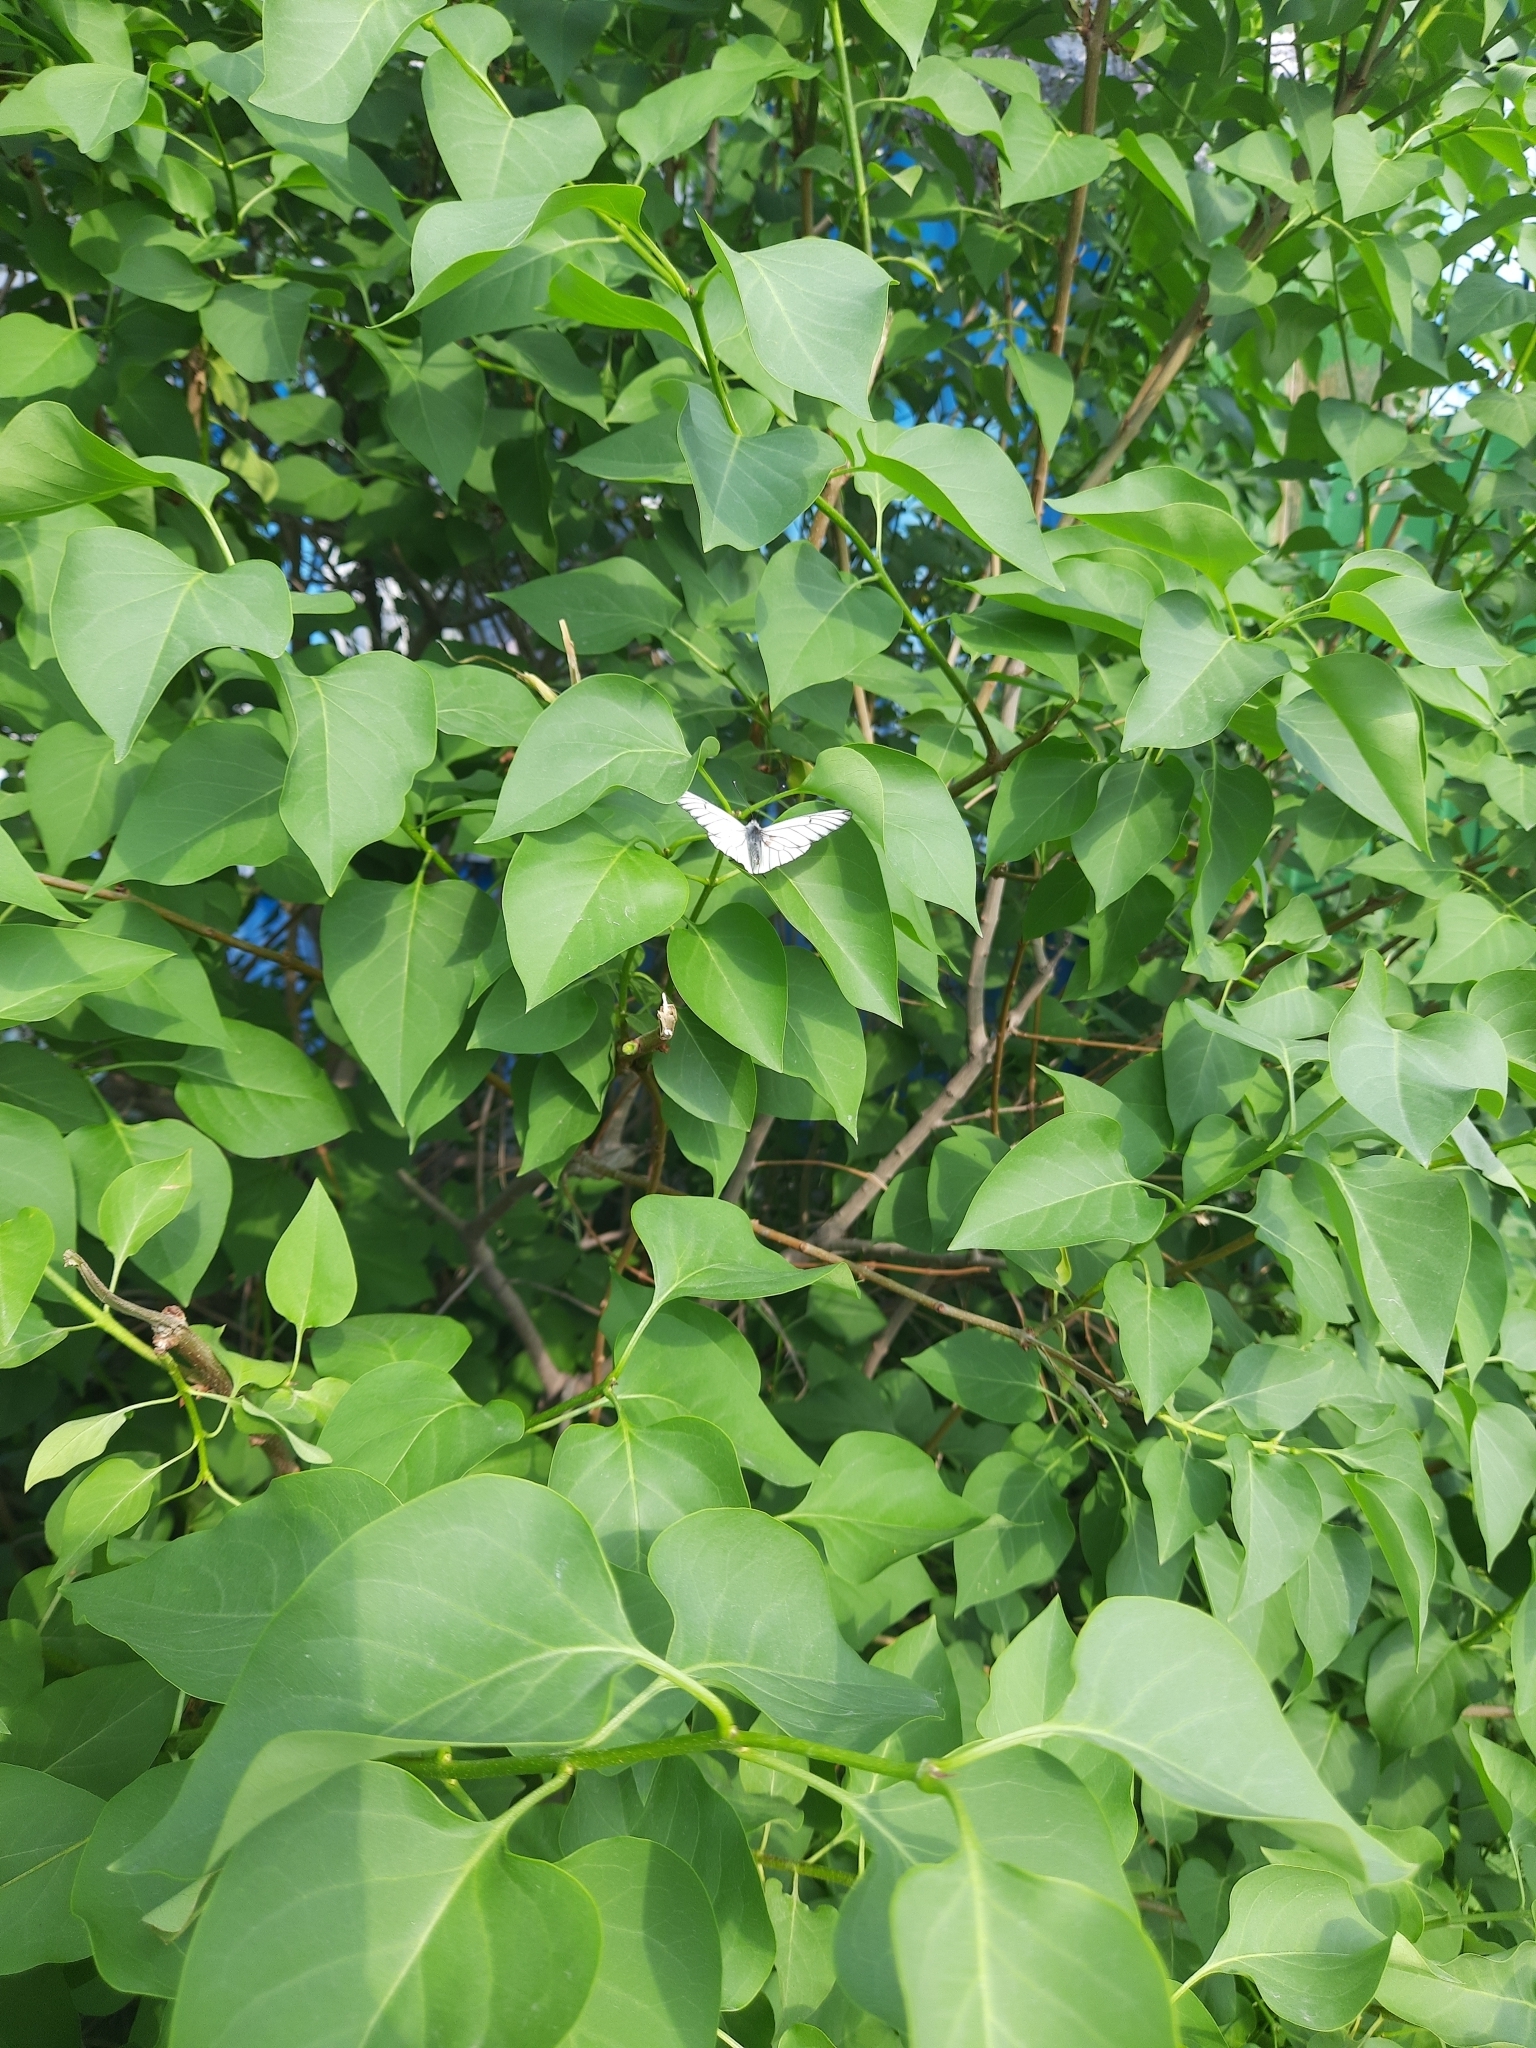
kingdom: Animalia
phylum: Arthropoda
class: Insecta
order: Lepidoptera
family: Pieridae
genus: Aporia
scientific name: Aporia crataegi
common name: Black-veined white
